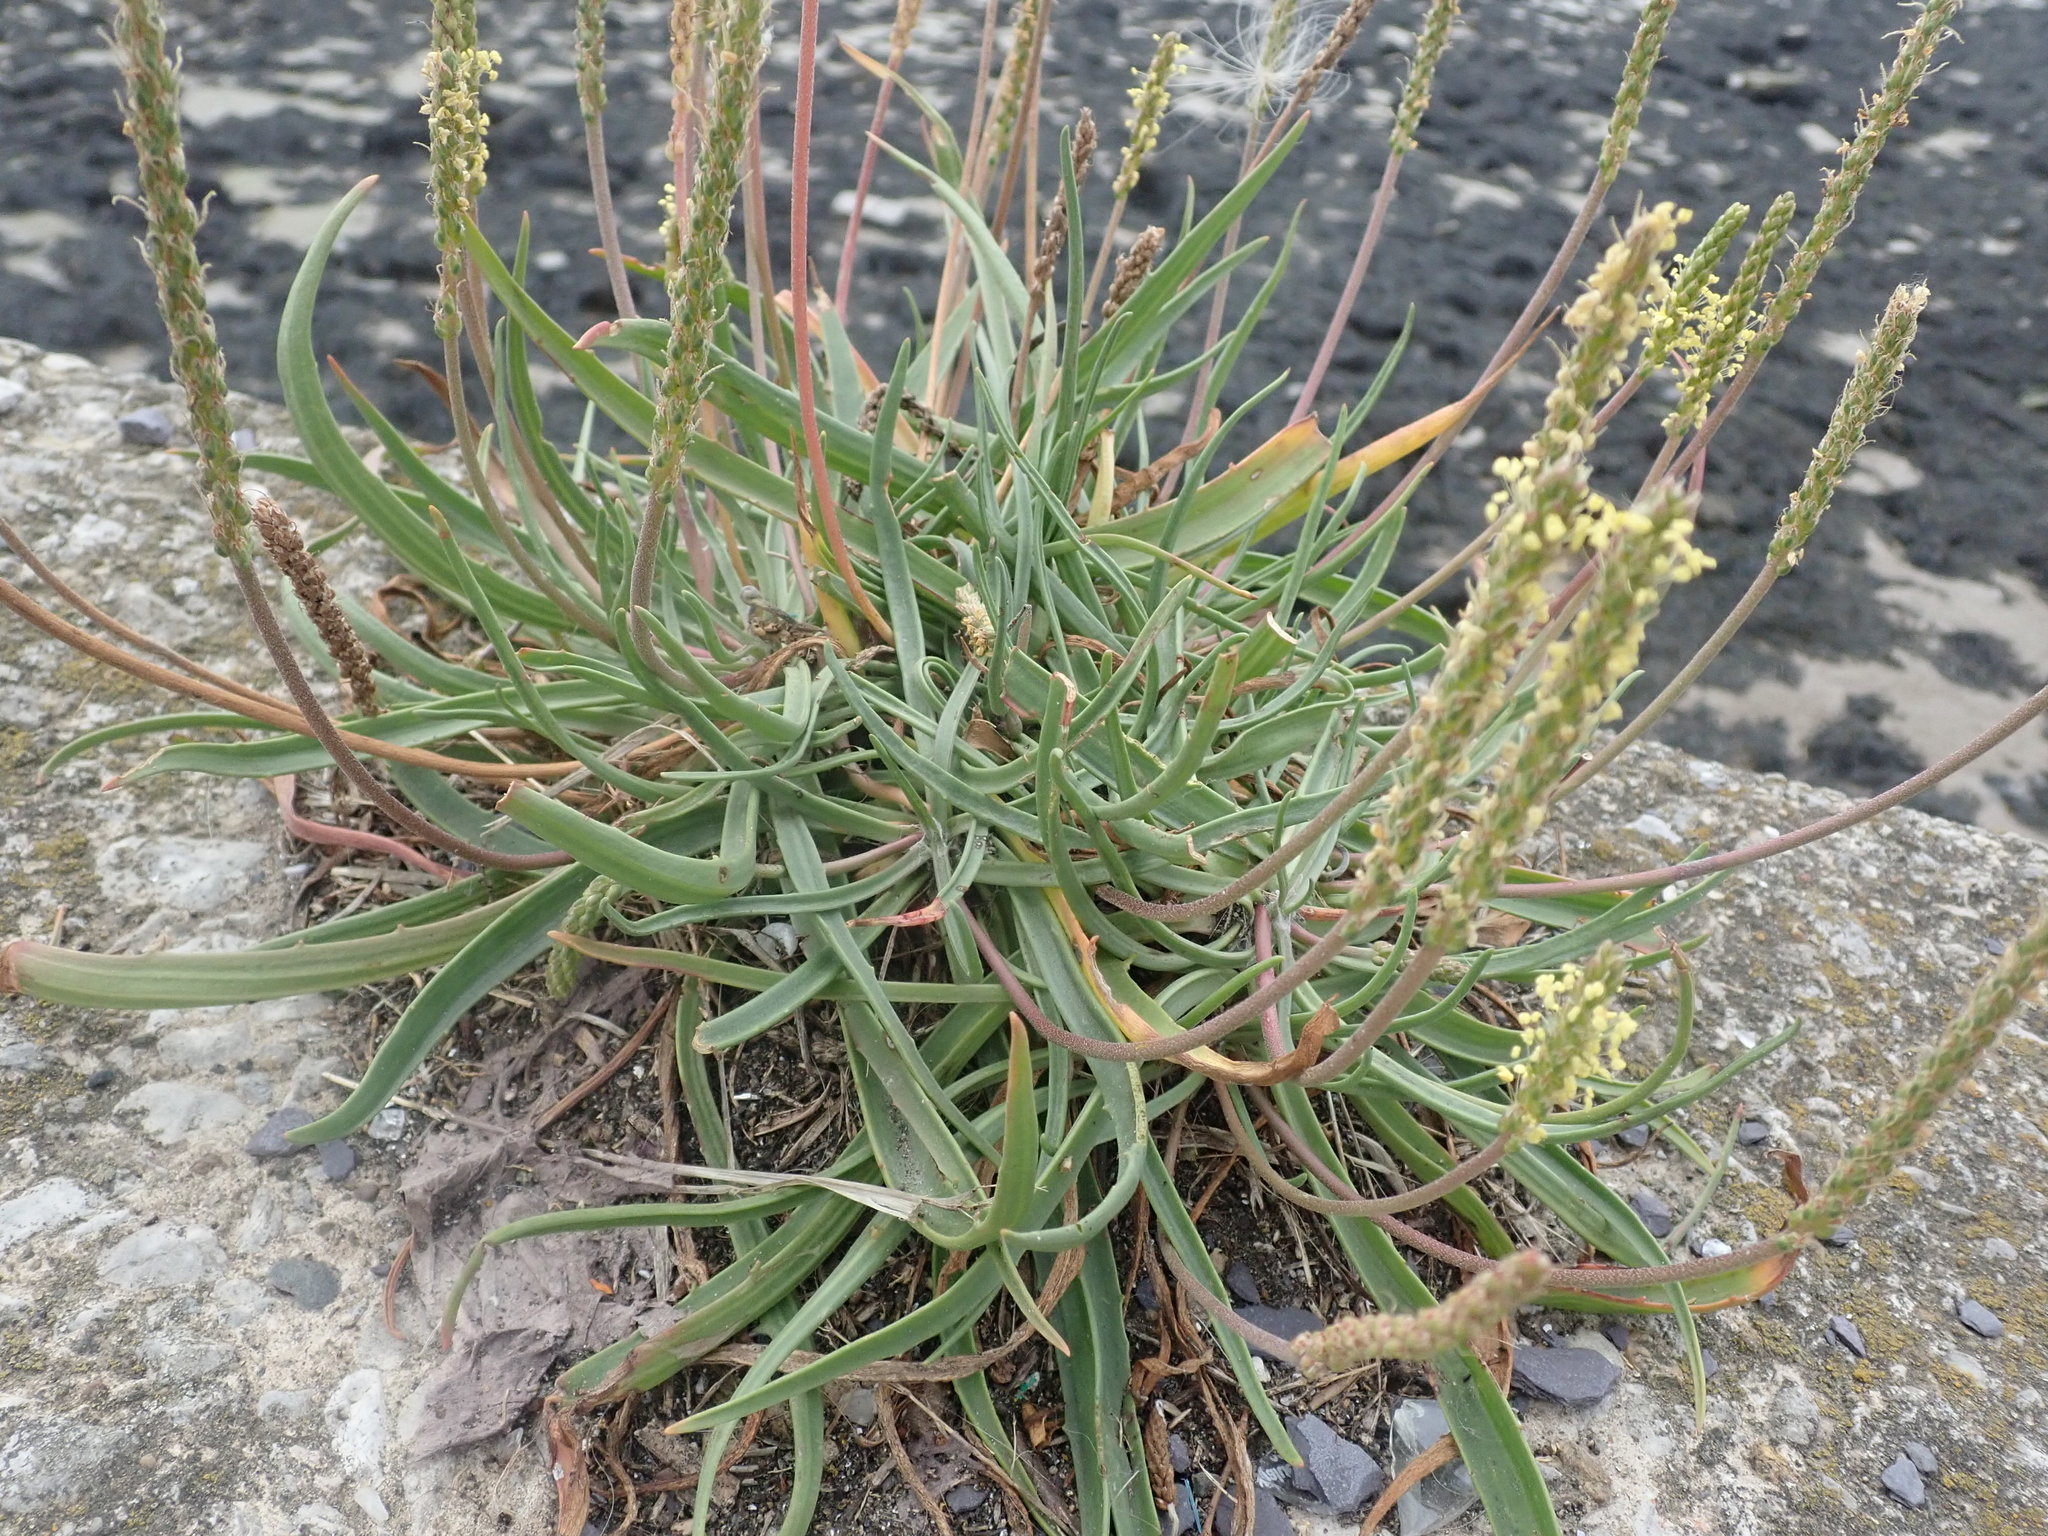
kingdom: Plantae
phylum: Tracheophyta
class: Magnoliopsida
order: Lamiales
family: Plantaginaceae
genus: Plantago
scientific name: Plantago maritima
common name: Sea plantain
